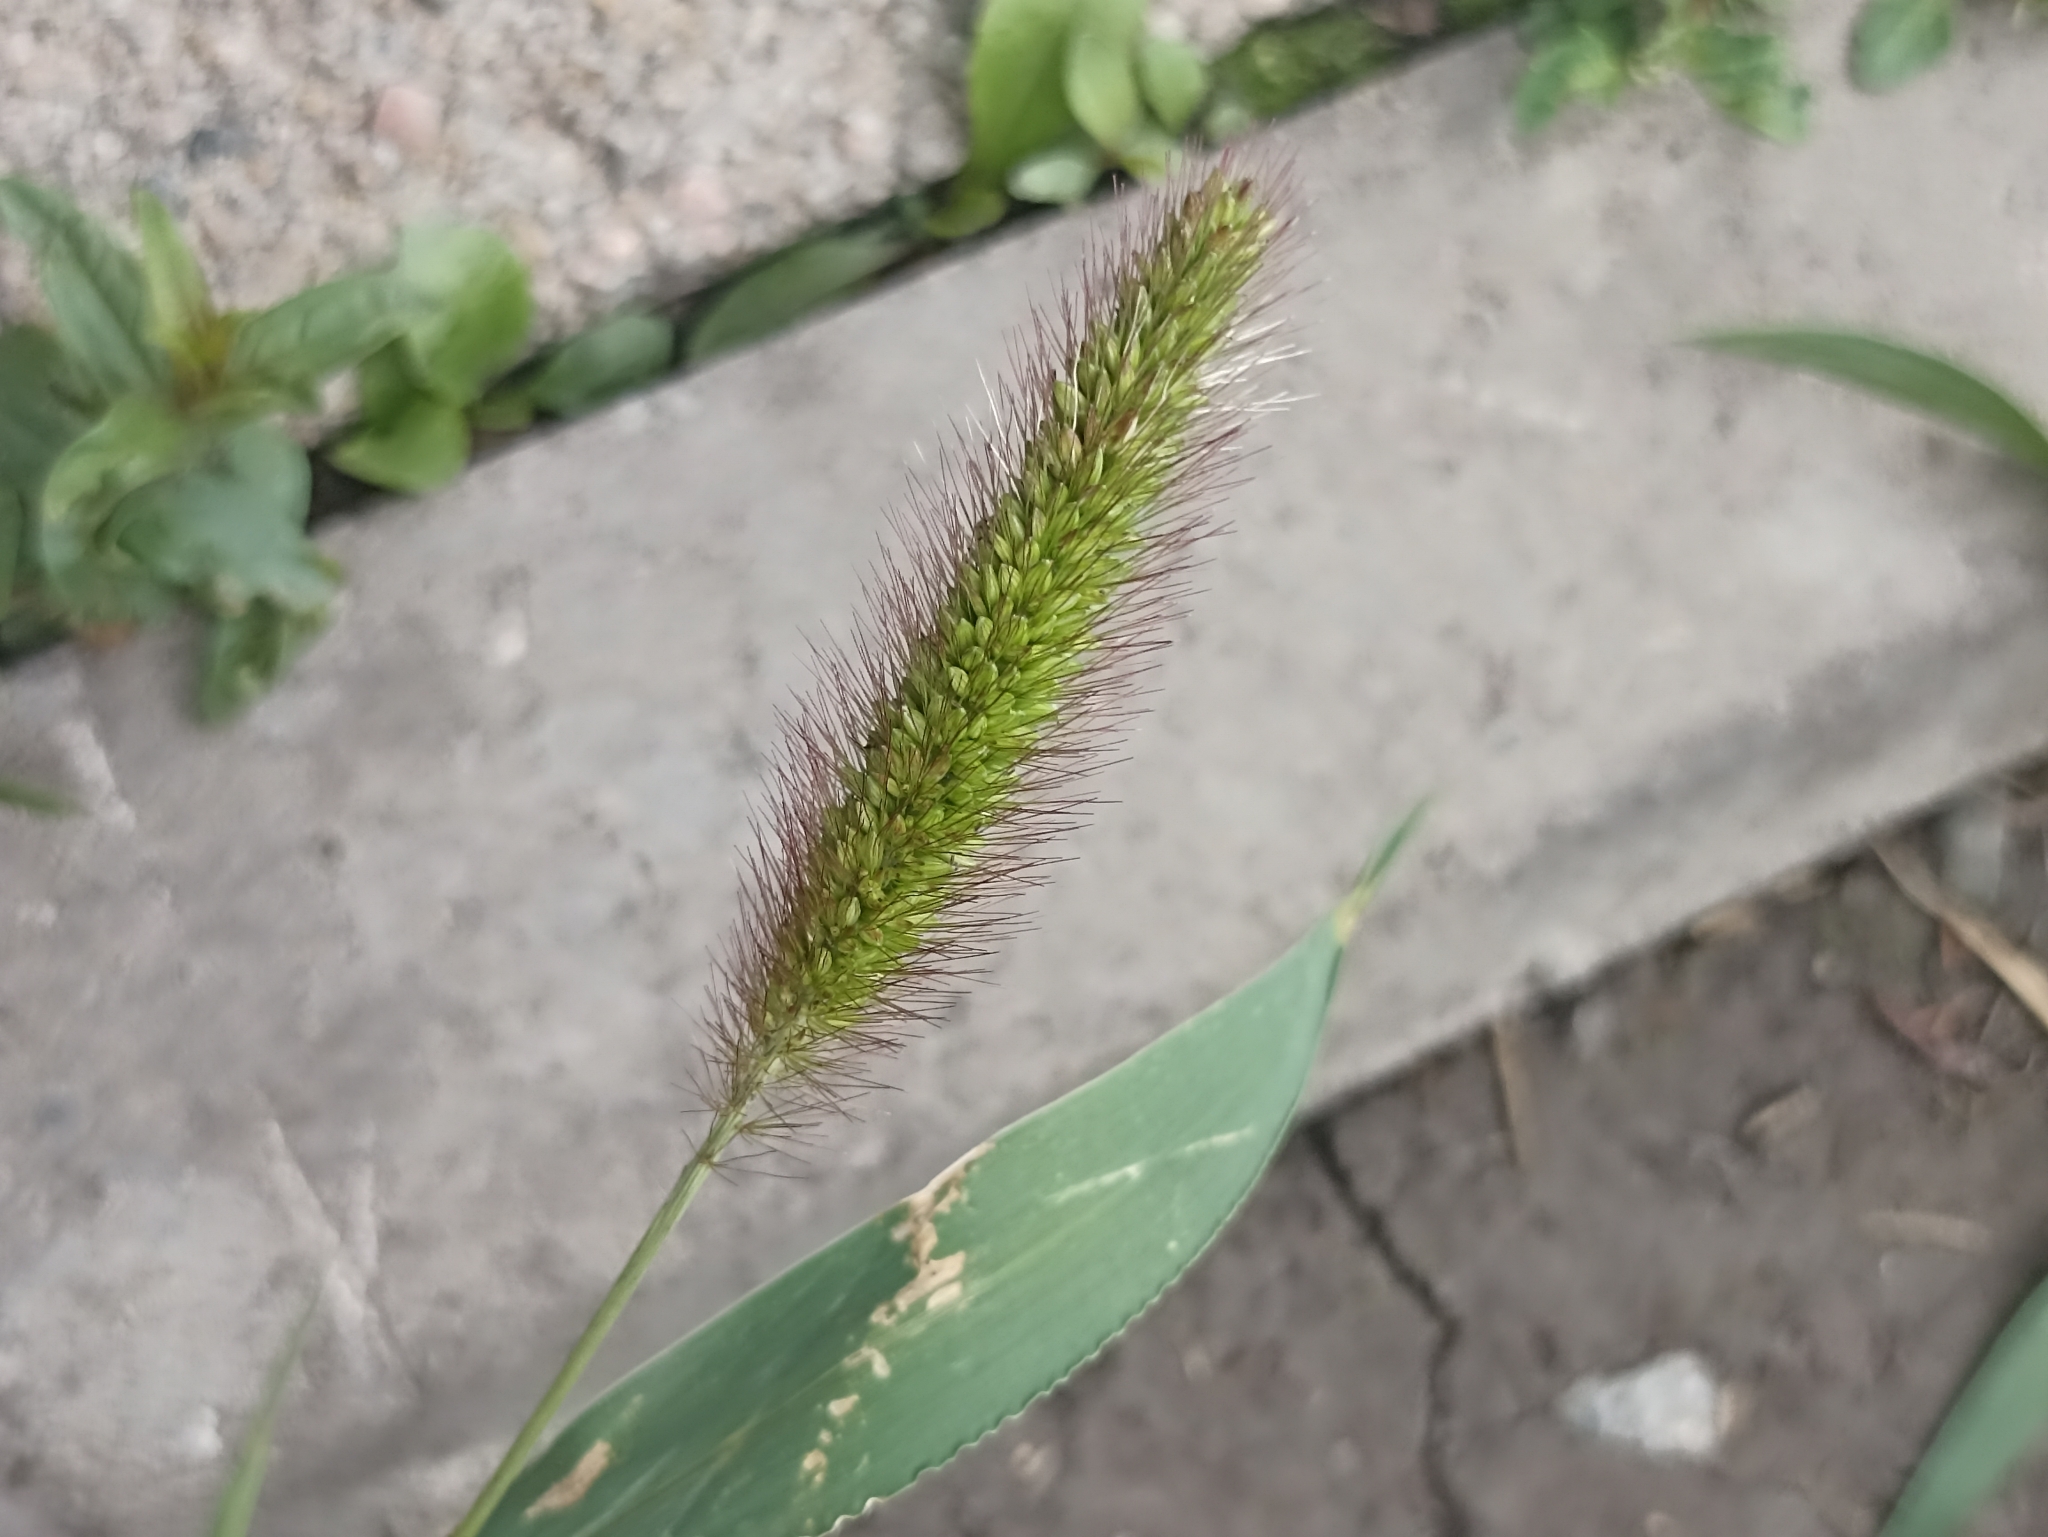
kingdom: Plantae
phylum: Tracheophyta
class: Liliopsida
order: Poales
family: Poaceae
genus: Setaria
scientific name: Setaria viridis
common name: Green bristlegrass
